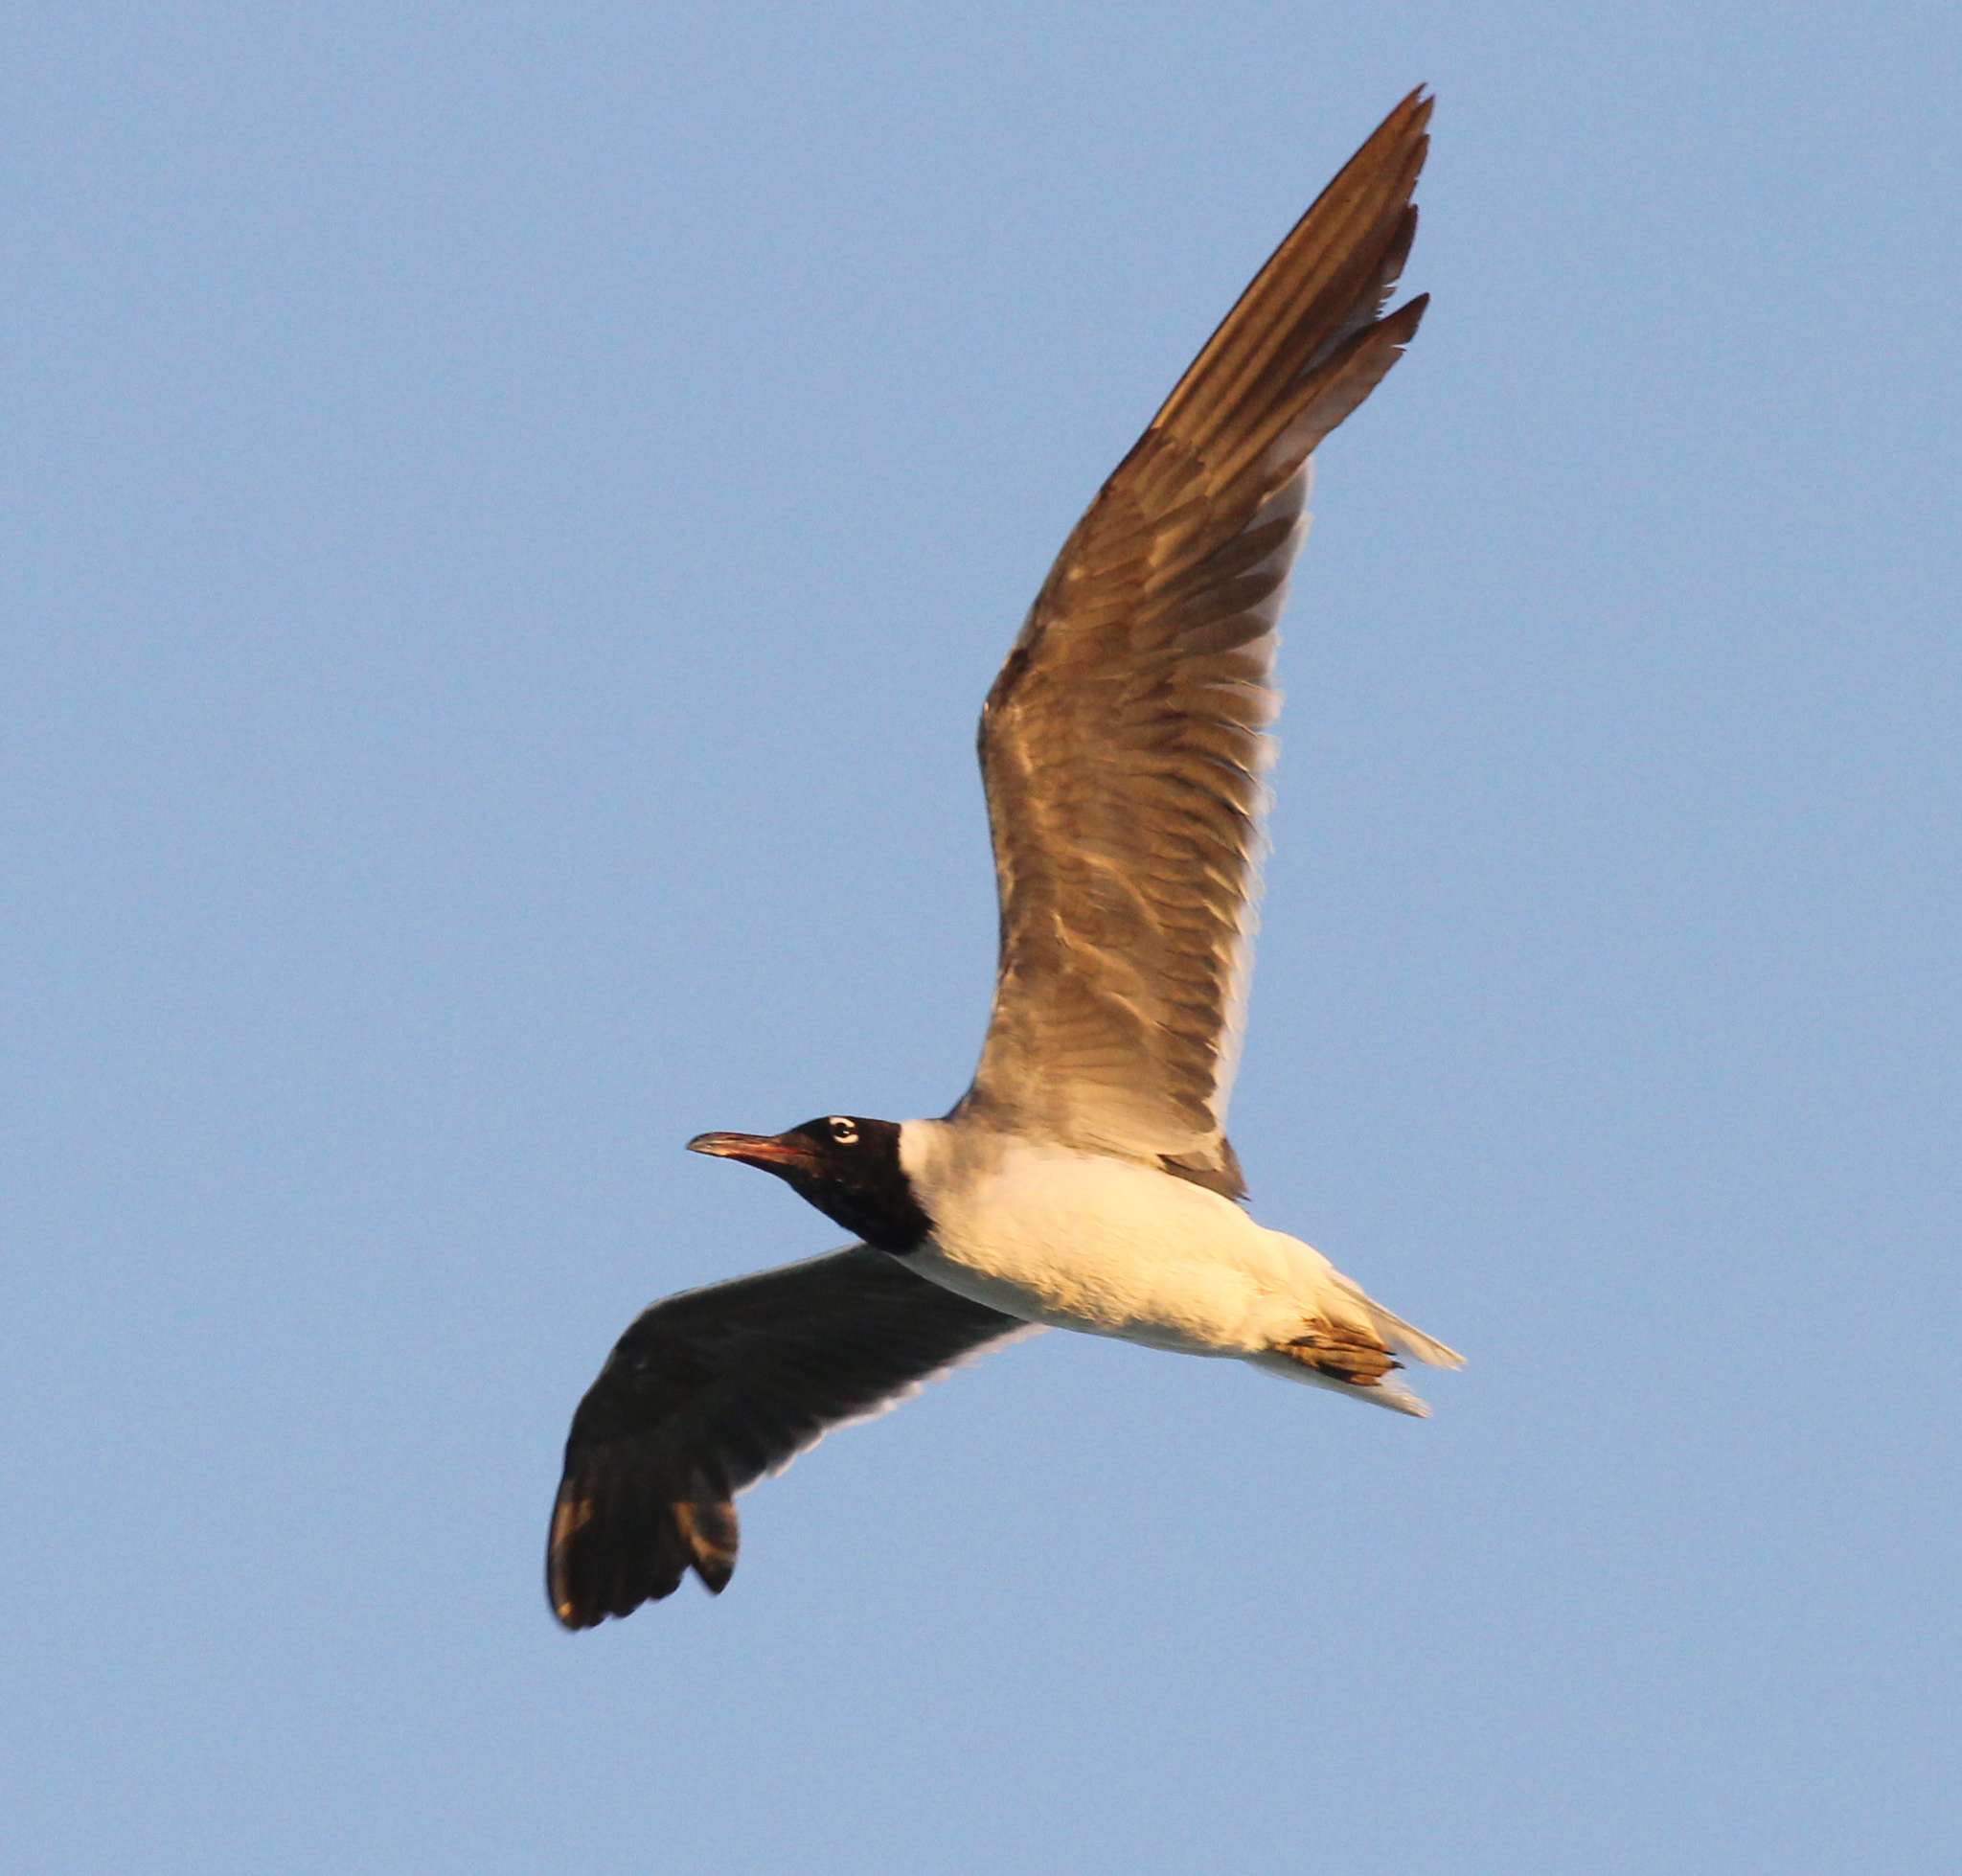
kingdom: Animalia
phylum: Chordata
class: Aves
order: Charadriiformes
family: Laridae
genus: Ichthyaetus
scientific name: Ichthyaetus leucophthalmus
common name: White-eyed gull
